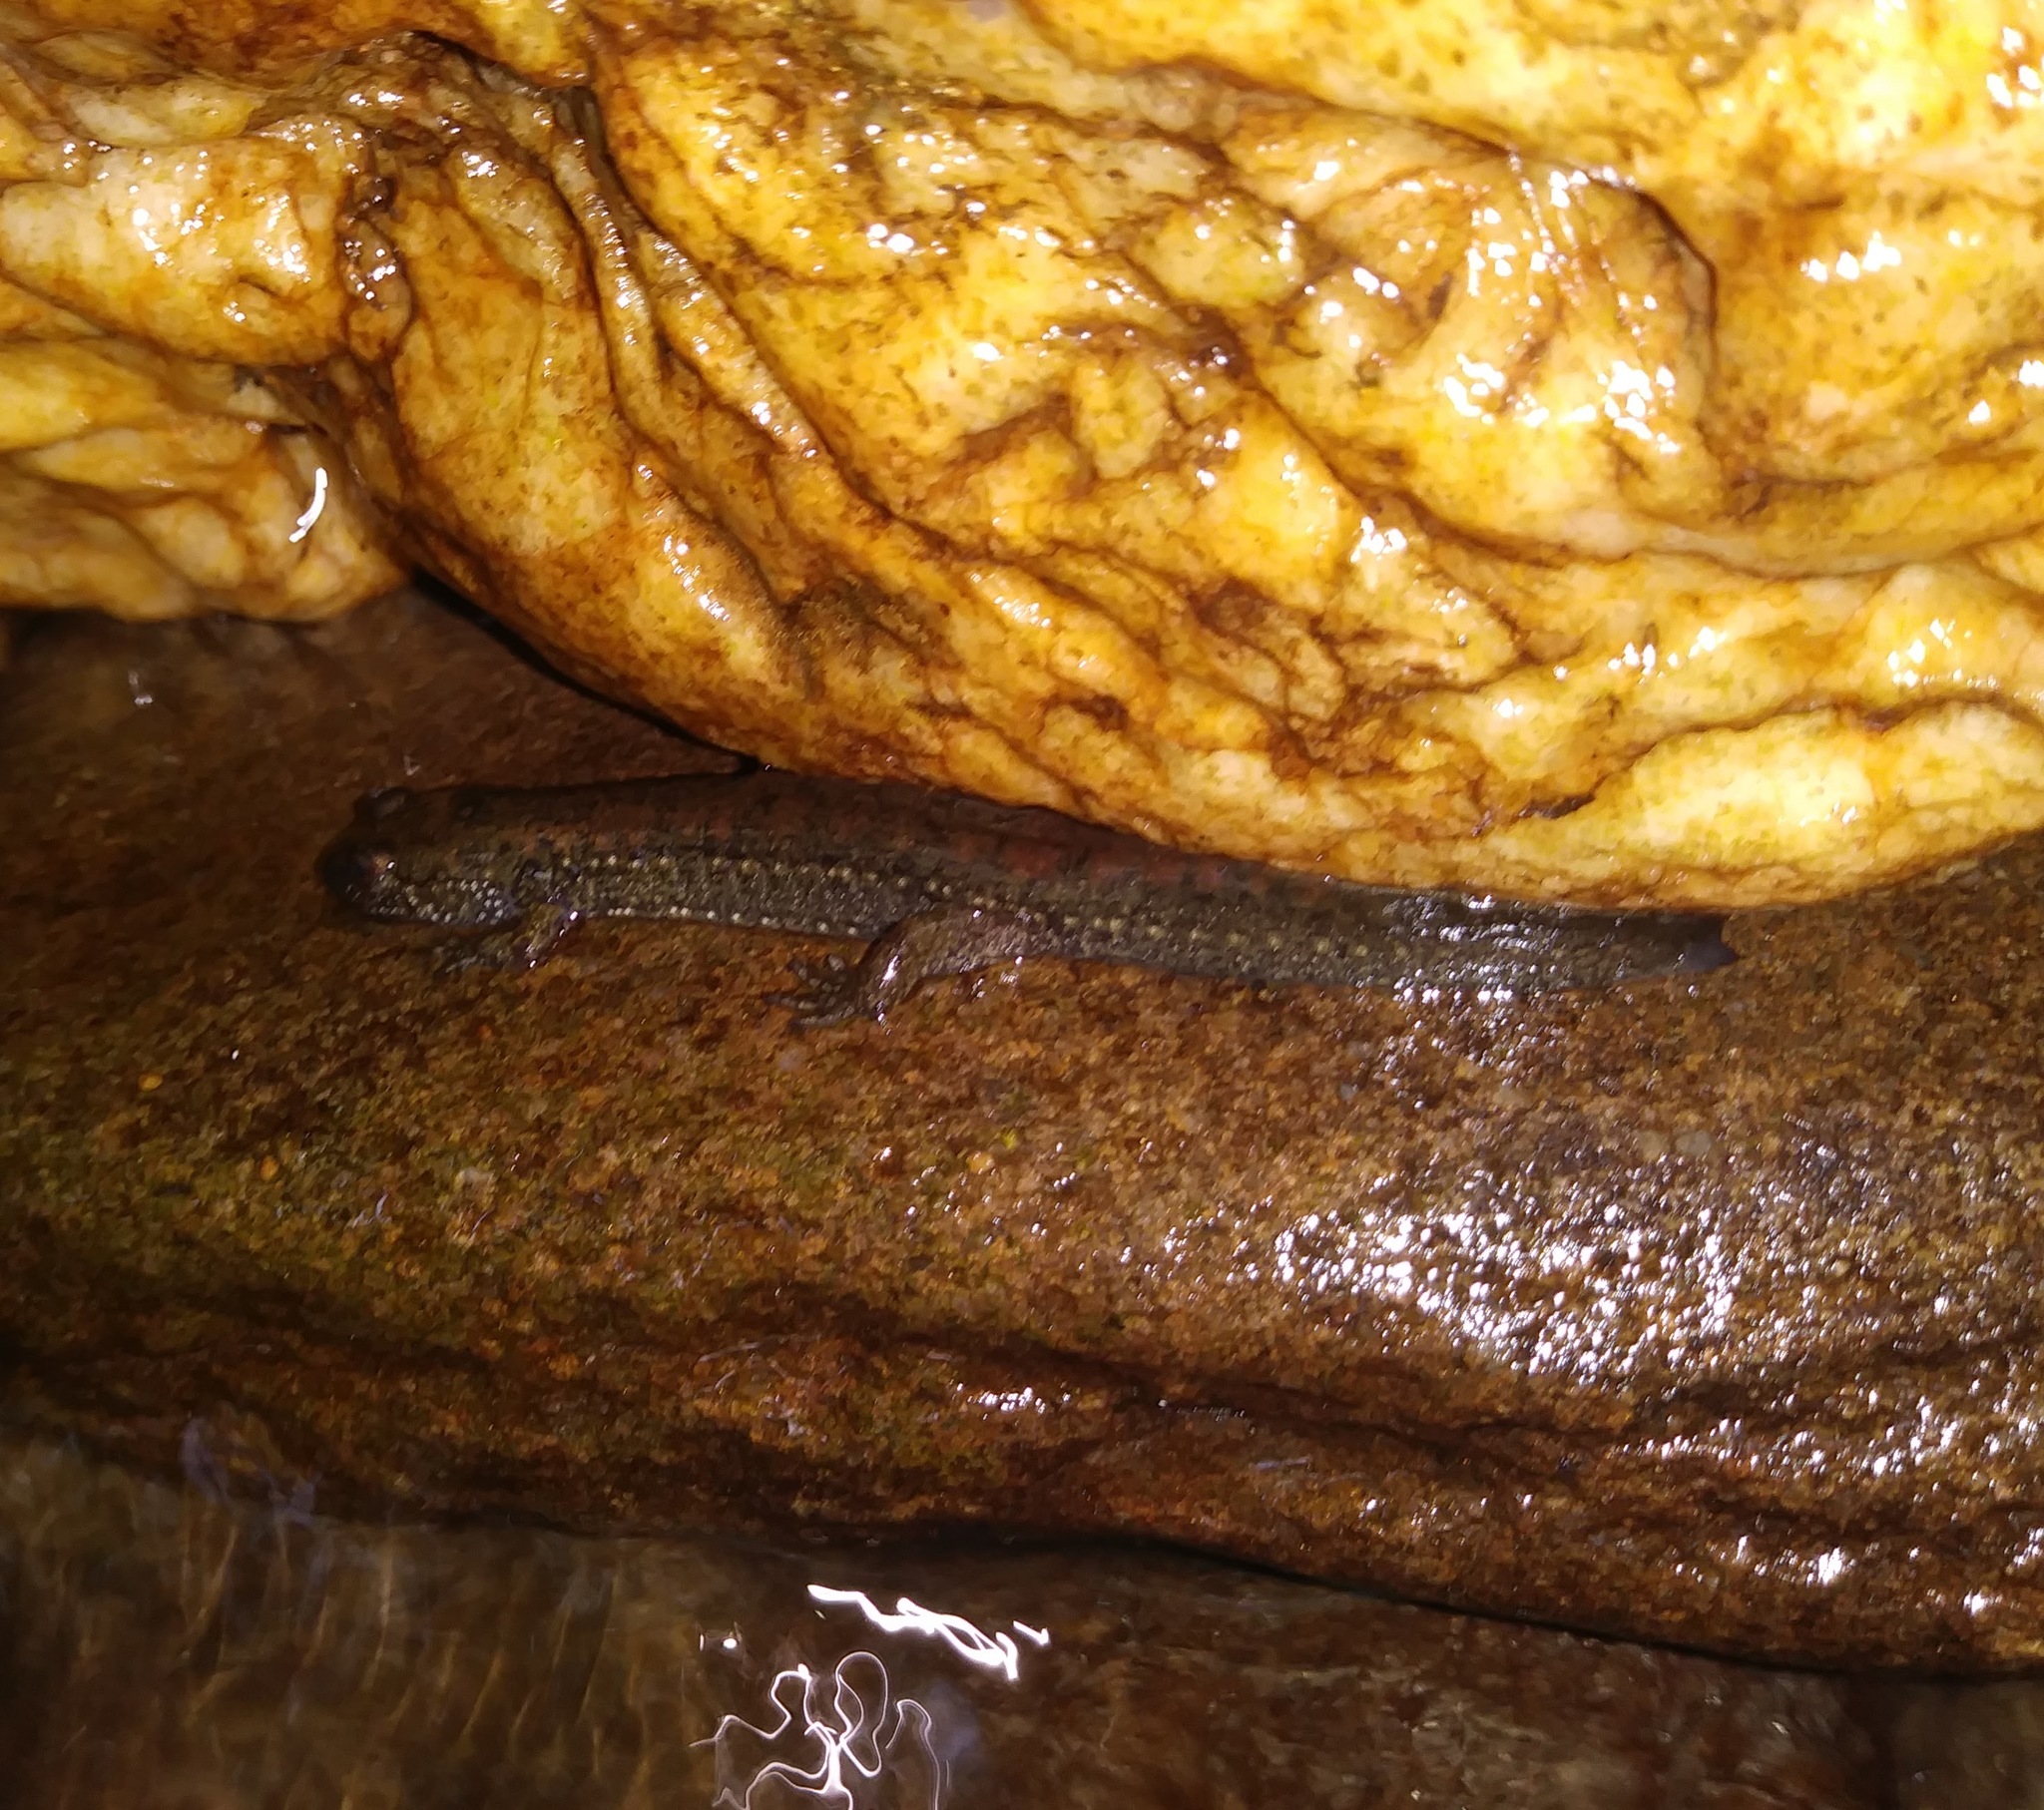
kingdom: Animalia
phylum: Chordata
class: Amphibia
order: Caudata
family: Plethodontidae
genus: Desmognathus
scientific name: Desmognathus
